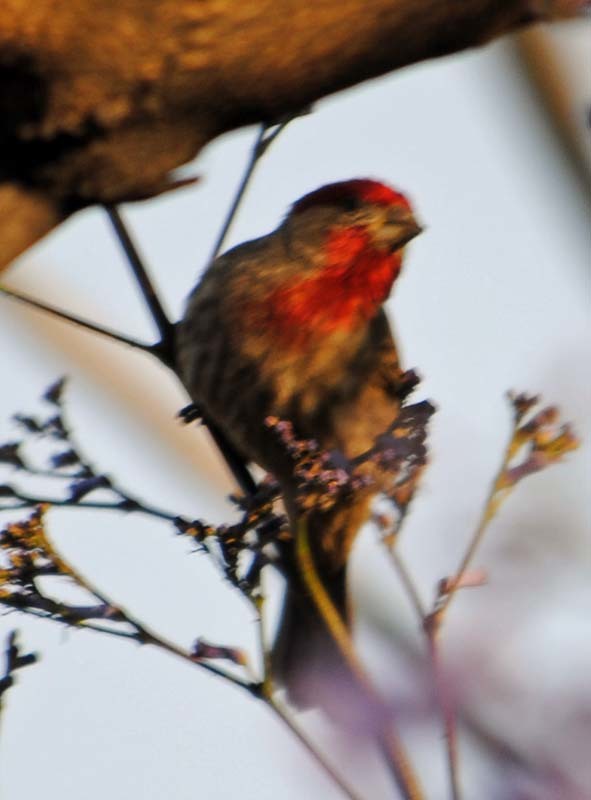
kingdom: Animalia
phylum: Chordata
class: Aves
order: Passeriformes
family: Fringillidae
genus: Haemorhous
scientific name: Haemorhous mexicanus
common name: House finch
